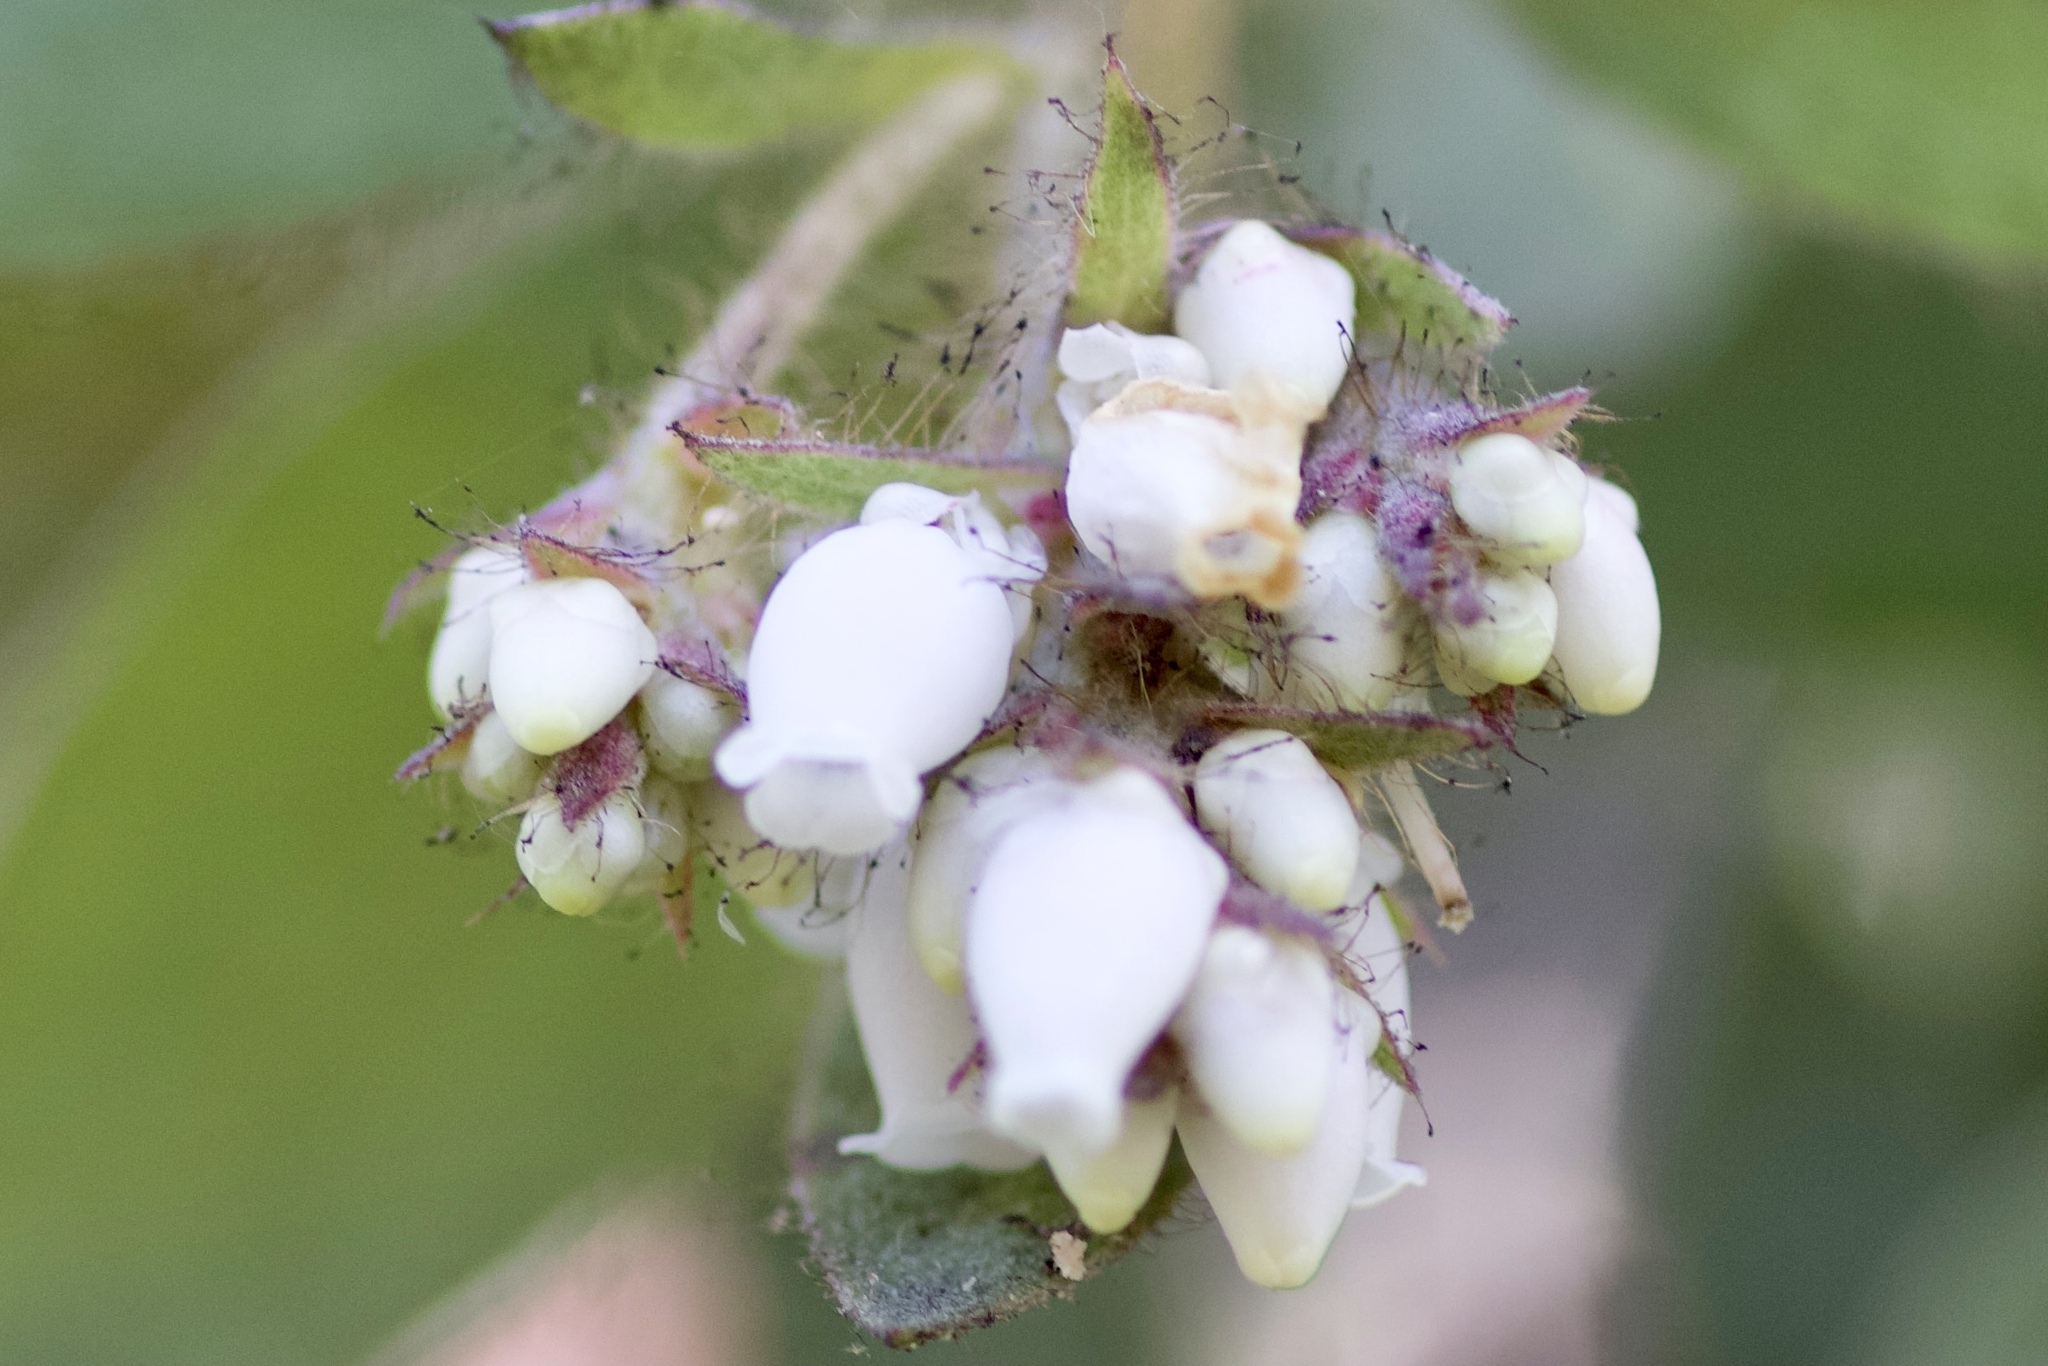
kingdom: Plantae
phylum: Tracheophyta
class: Magnoliopsida
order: Ericales
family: Ericaceae
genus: Arctostaphylos
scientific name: Arctostaphylos columbiana
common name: Bristly bearberry
